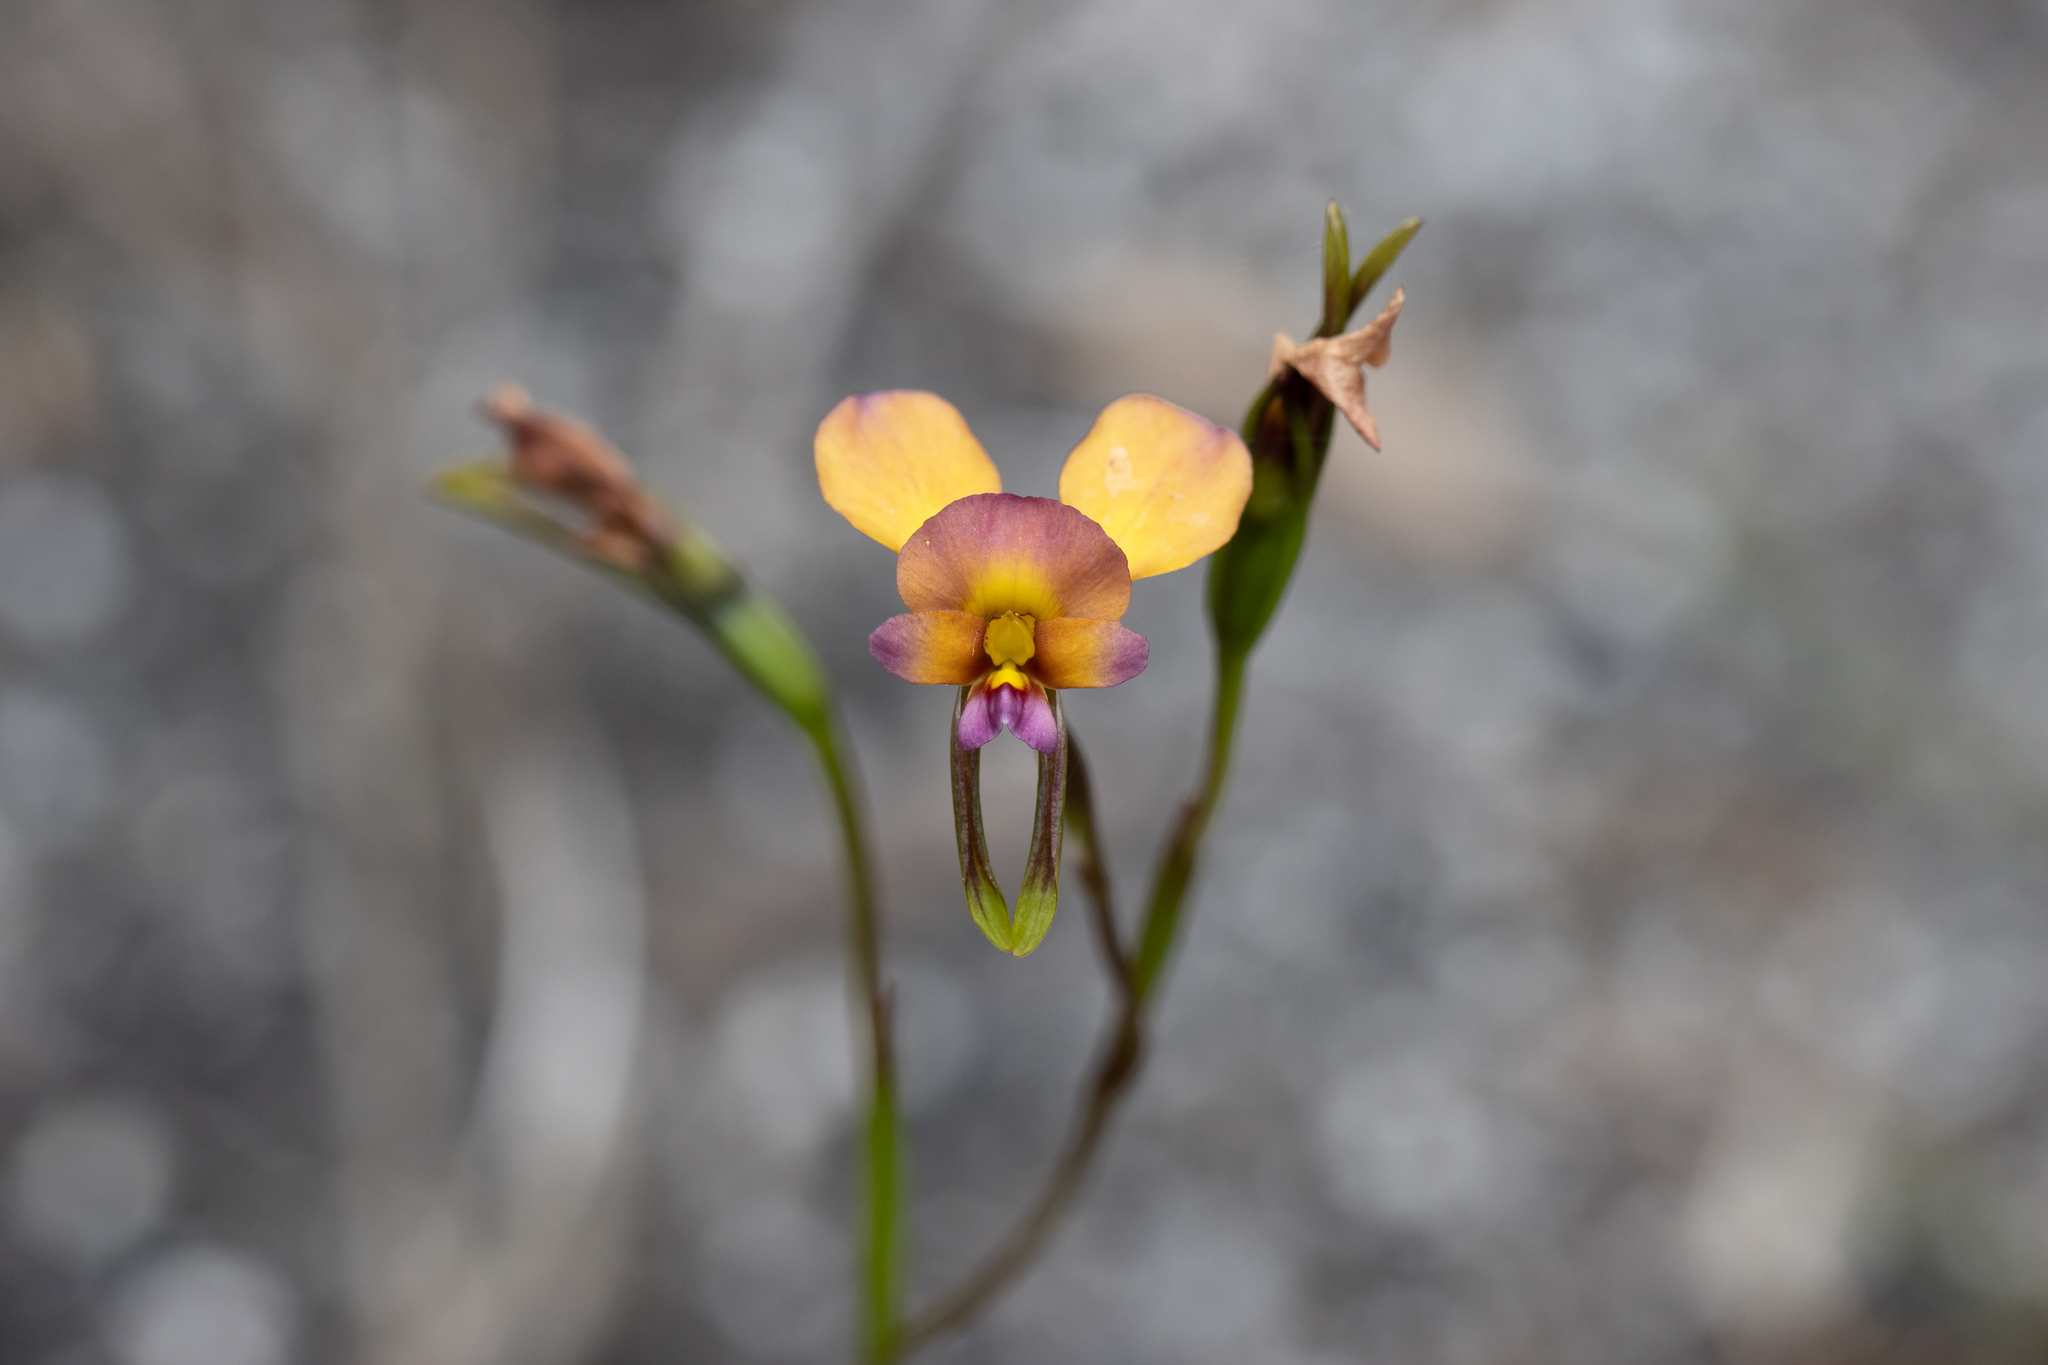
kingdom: Plantae
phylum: Tracheophyta
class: Liliopsida
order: Asparagales
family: Orchidaceae
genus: Diuris
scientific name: Diuris longifolia
